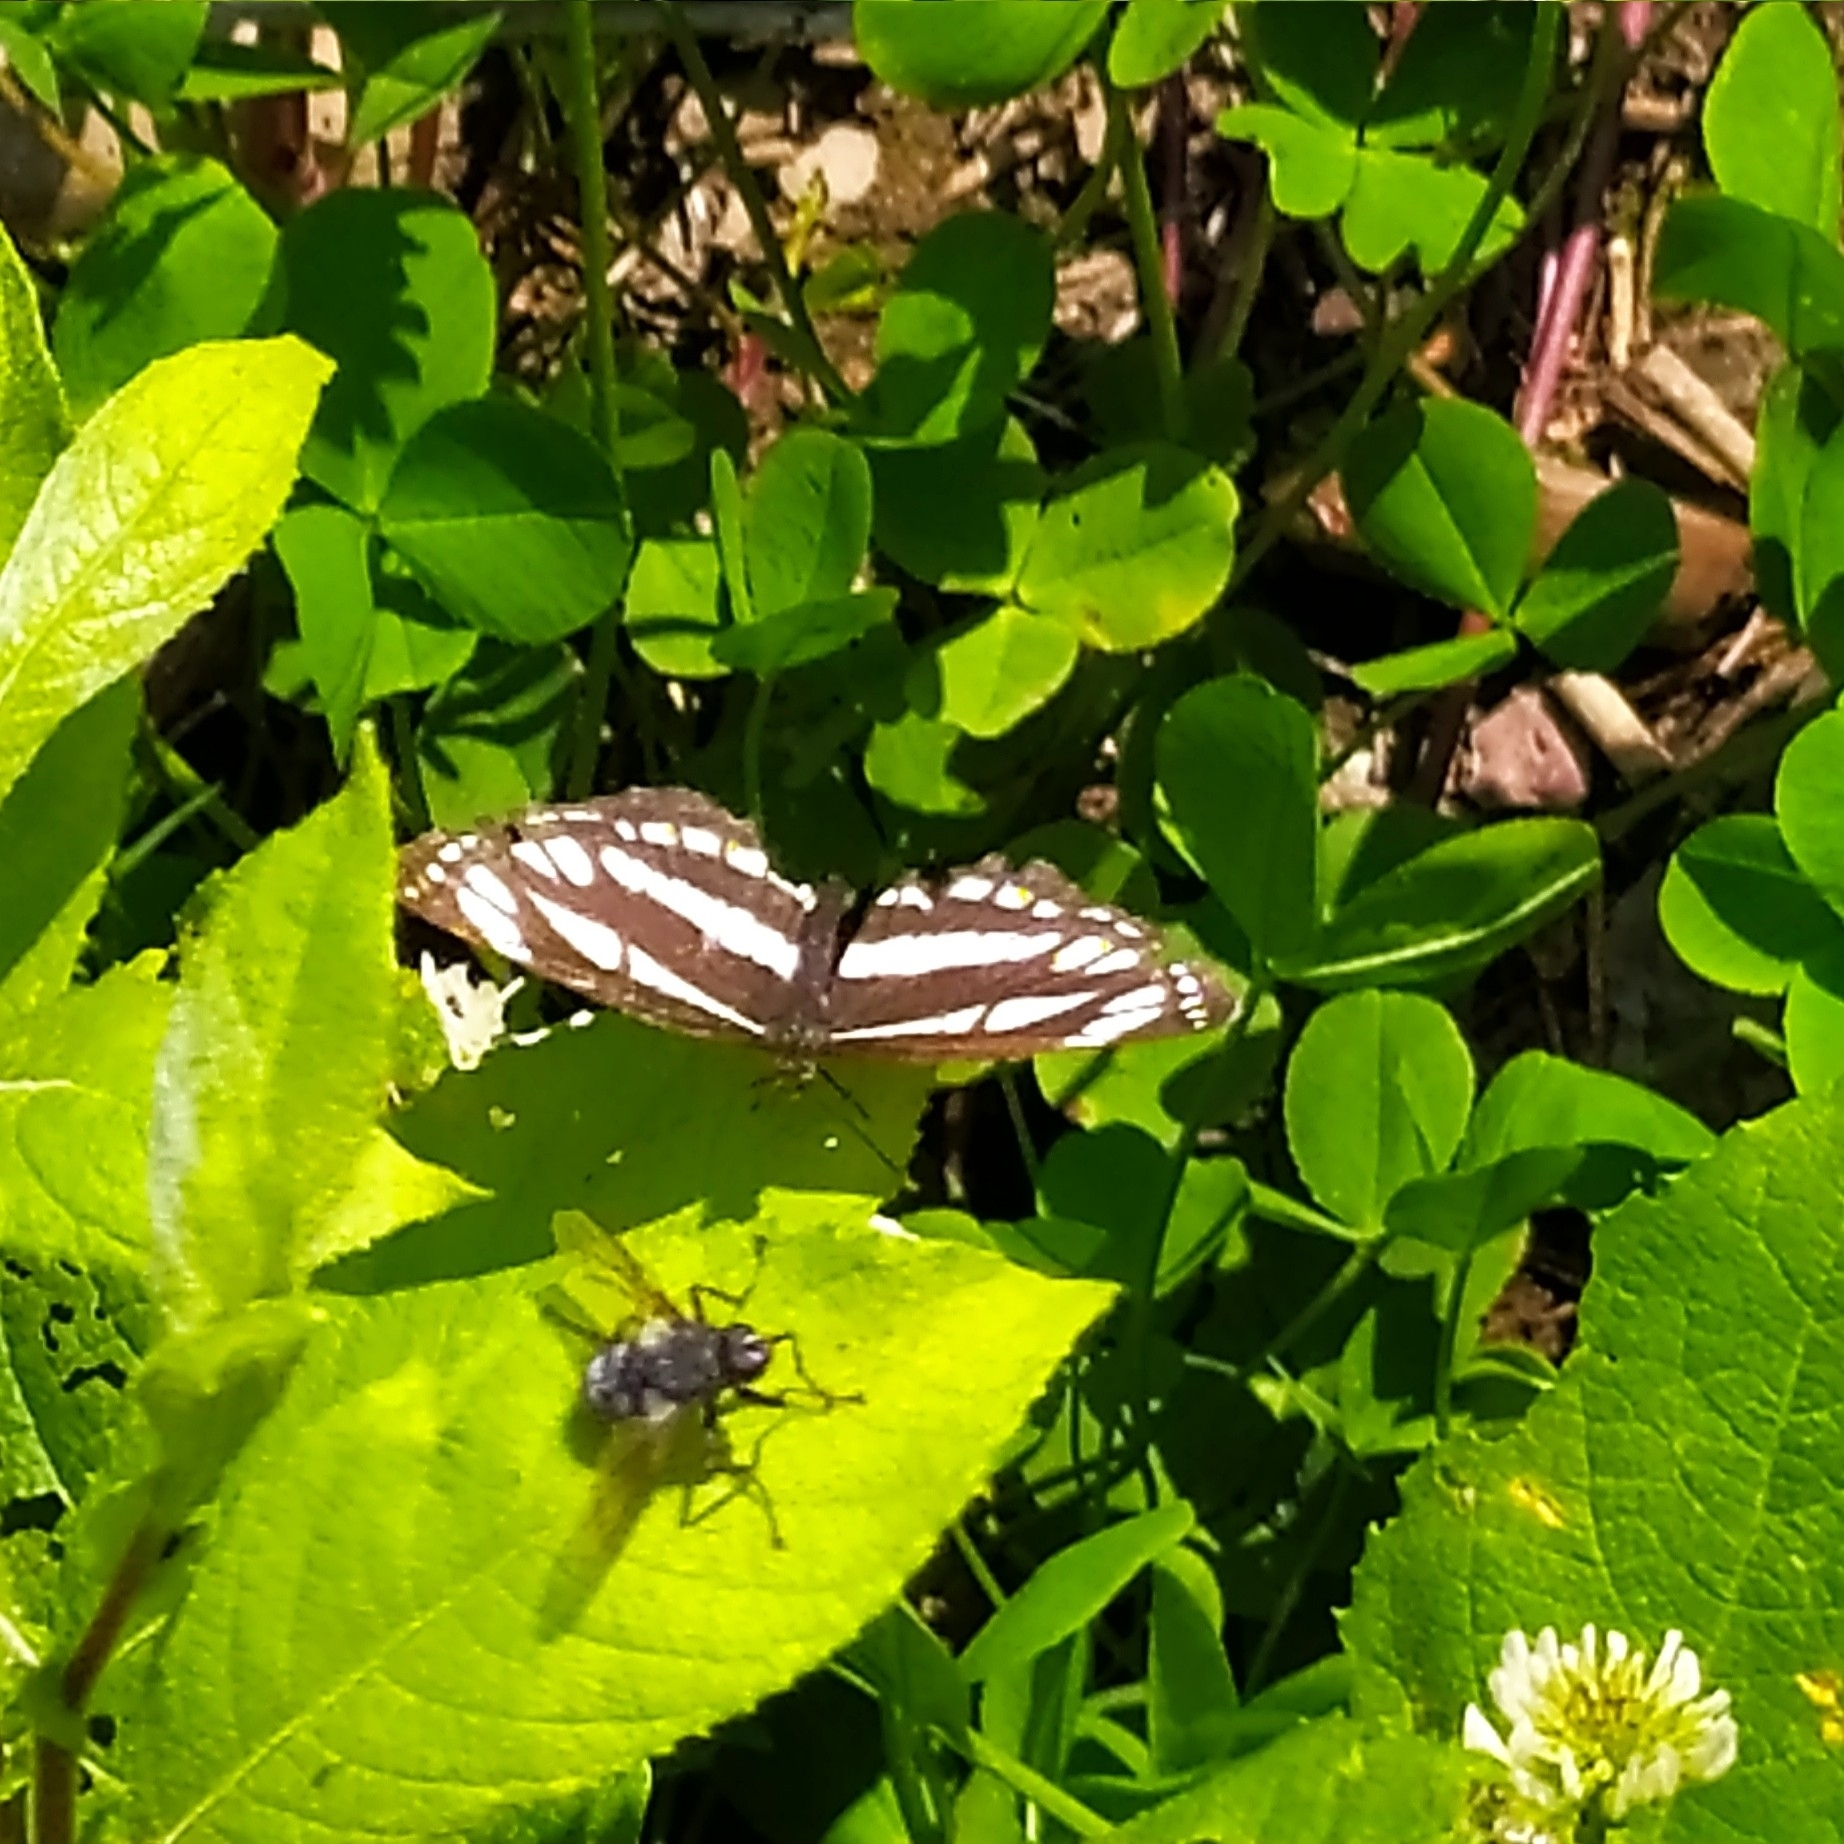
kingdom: Animalia
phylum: Arthropoda
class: Insecta
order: Lepidoptera
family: Nymphalidae
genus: Neptis
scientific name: Neptis sappho
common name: Common glider
